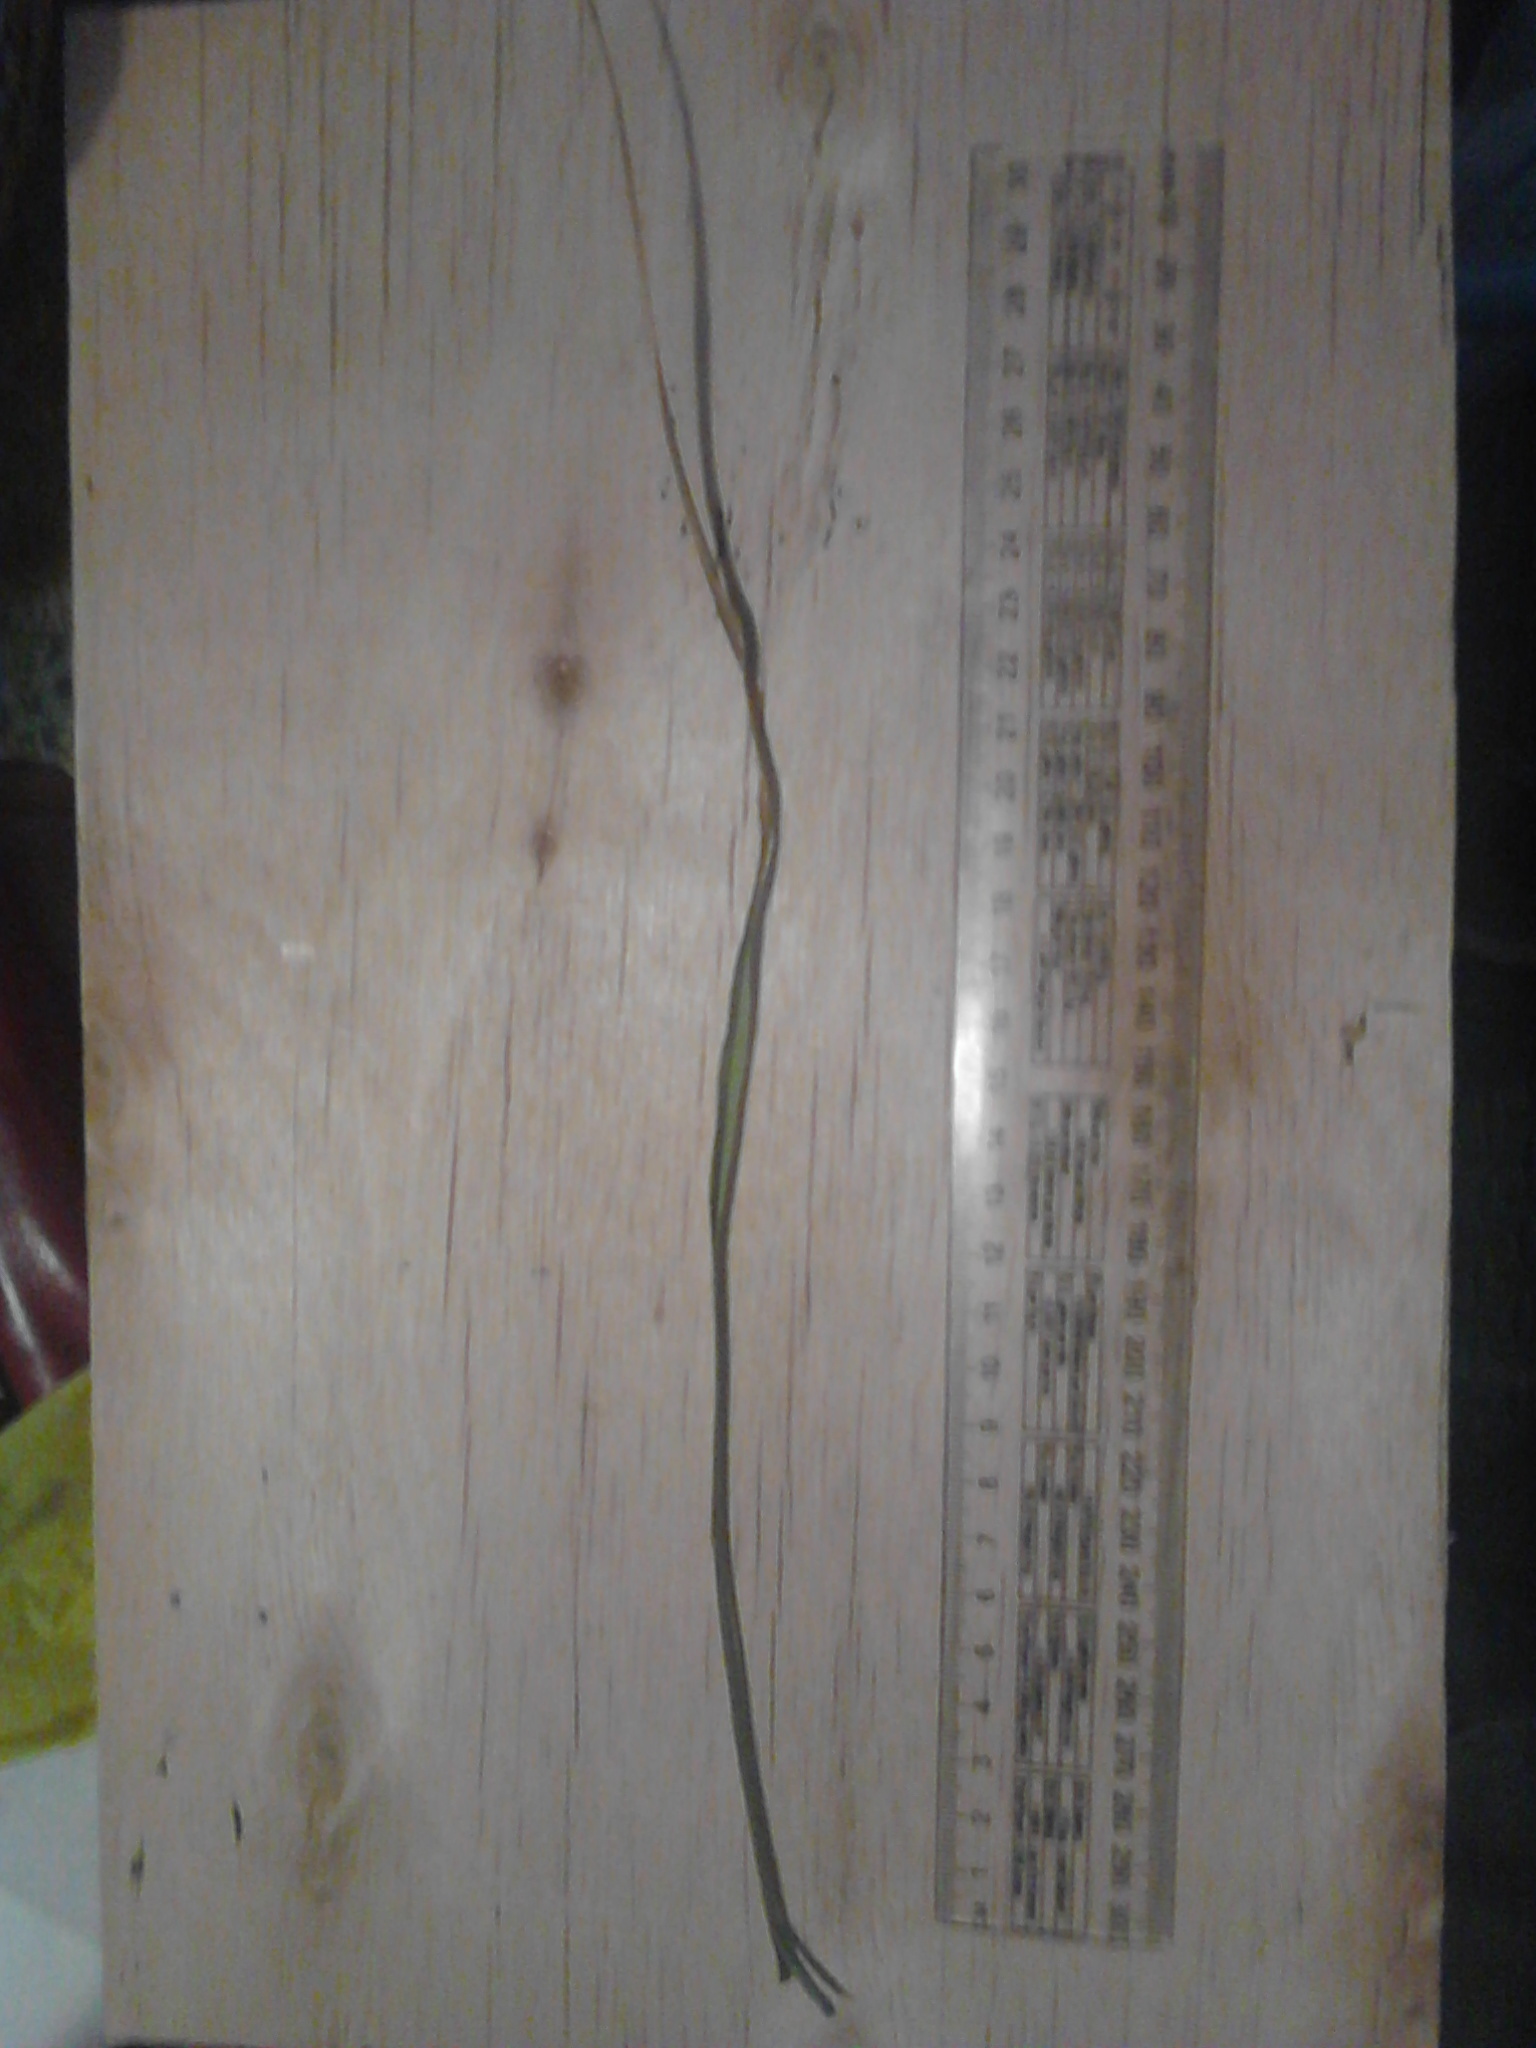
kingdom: Plantae
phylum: Tracheophyta
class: Liliopsida
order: Poales
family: Cyperaceae
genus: Cyperus
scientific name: Cyperus ustulatus
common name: Giant umbrella-sedge
